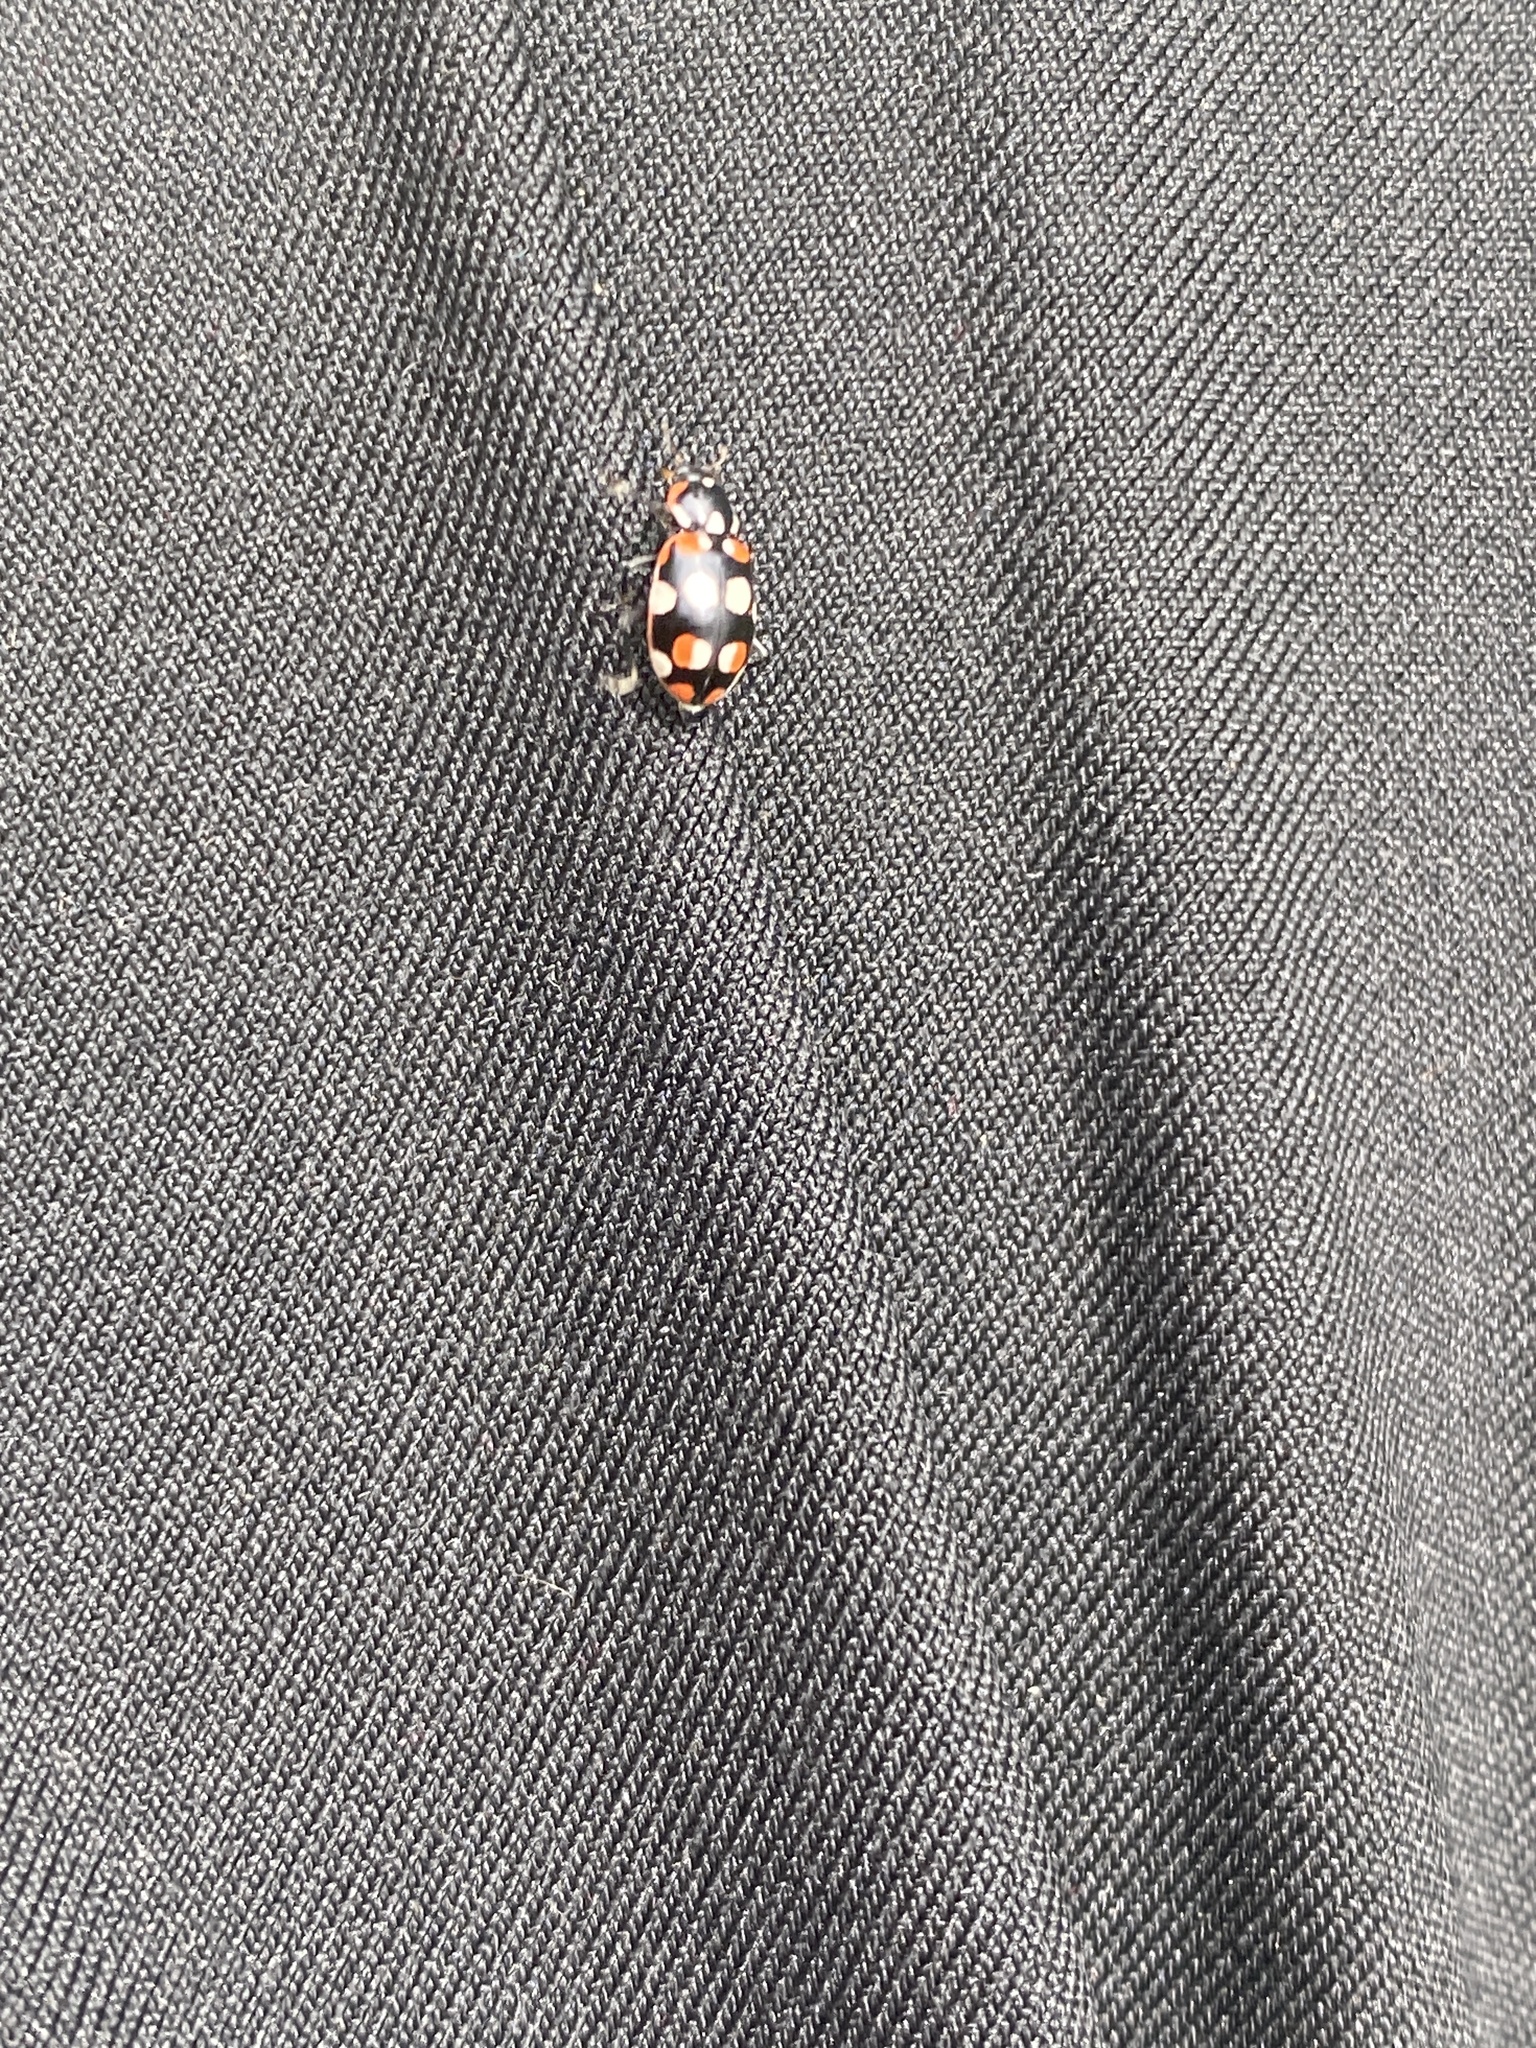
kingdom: Animalia
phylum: Arthropoda
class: Insecta
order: Coleoptera
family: Coccinellidae
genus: Eriopis
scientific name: Eriopis connexa
